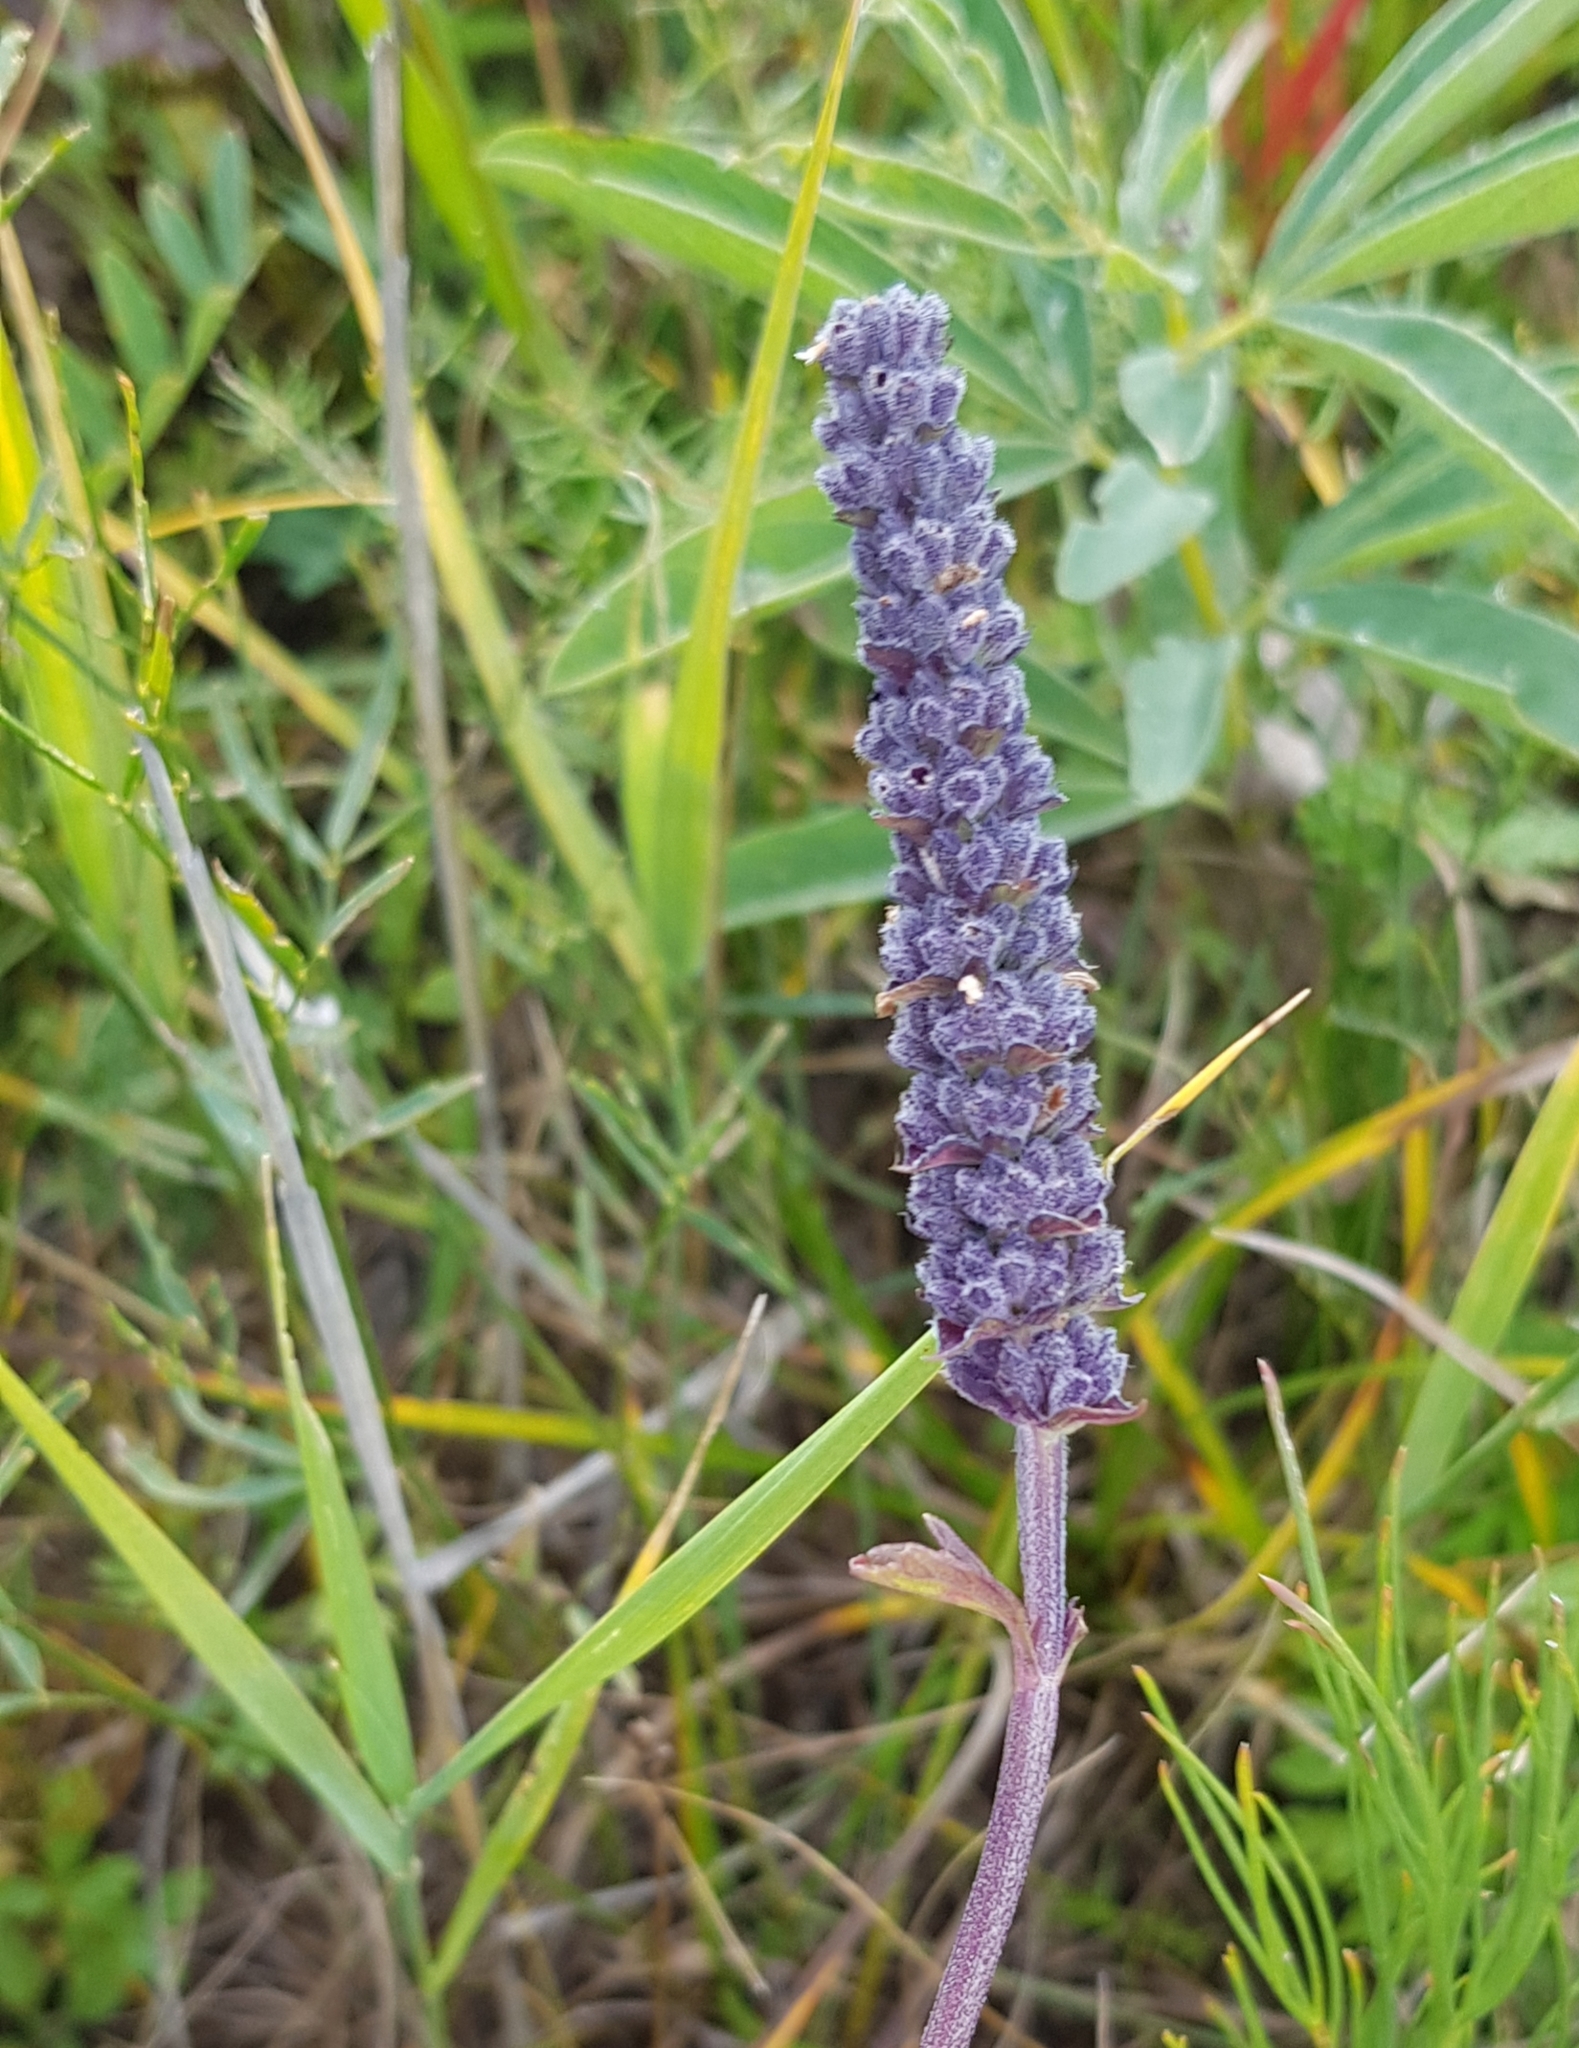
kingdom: Plantae
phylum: Tracheophyta
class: Magnoliopsida
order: Lamiales
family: Lamiaceae
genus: Nepeta
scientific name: Nepeta multifida
